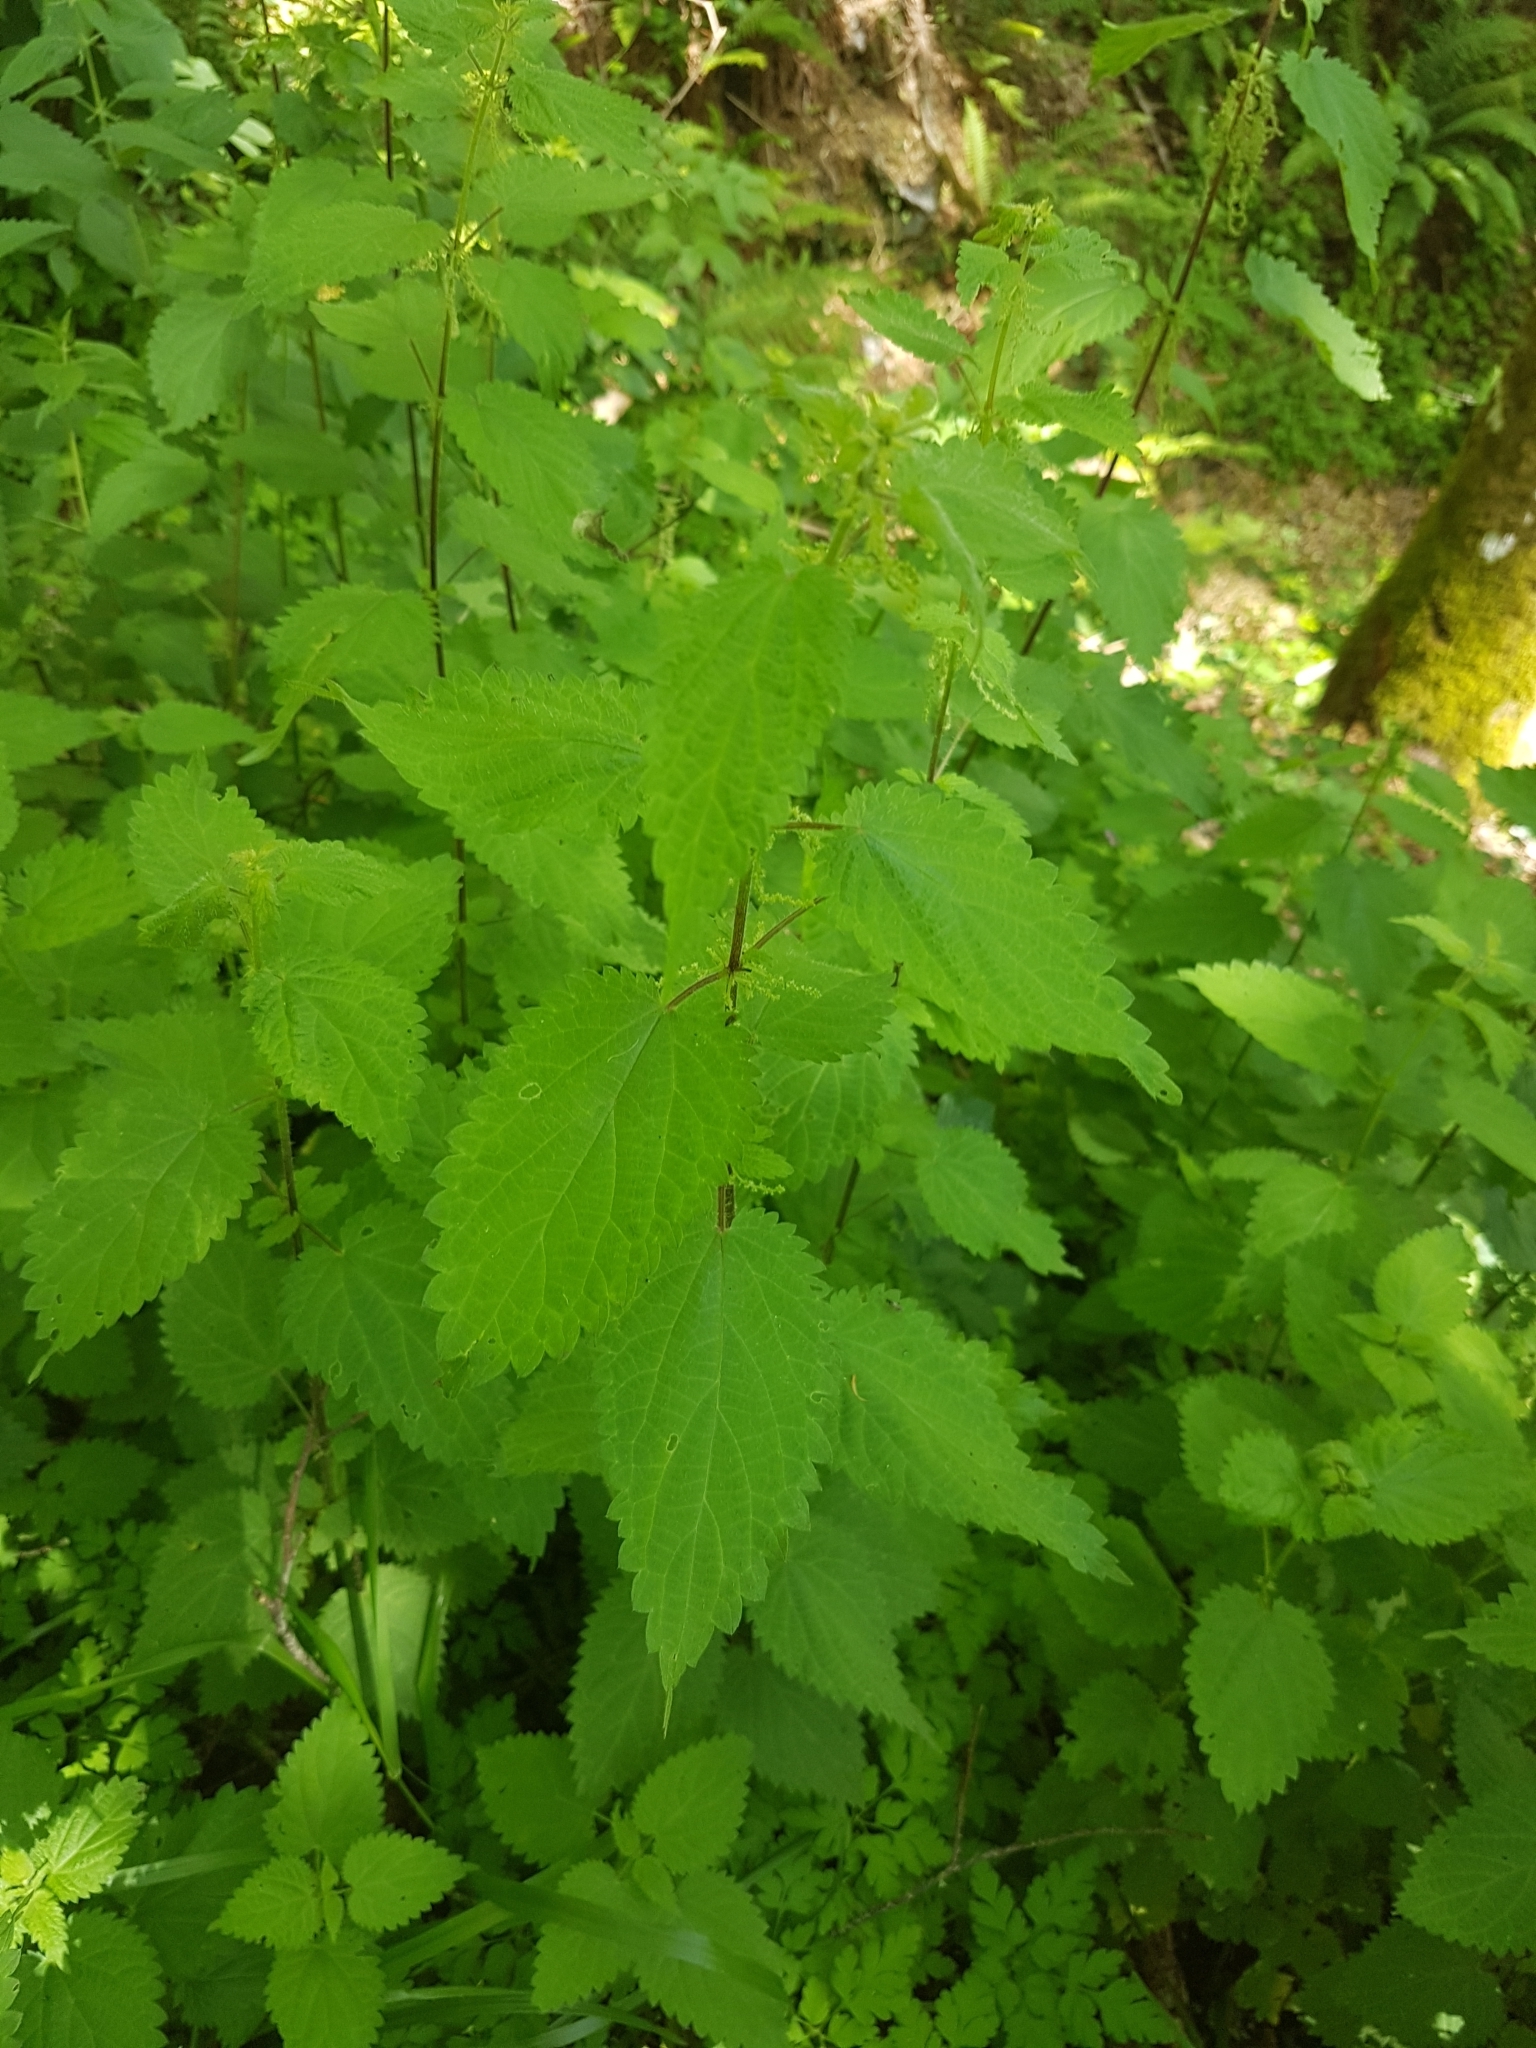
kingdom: Plantae
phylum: Tracheophyta
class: Magnoliopsida
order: Rosales
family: Urticaceae
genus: Urtica
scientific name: Urtica dioica
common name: Common nettle
